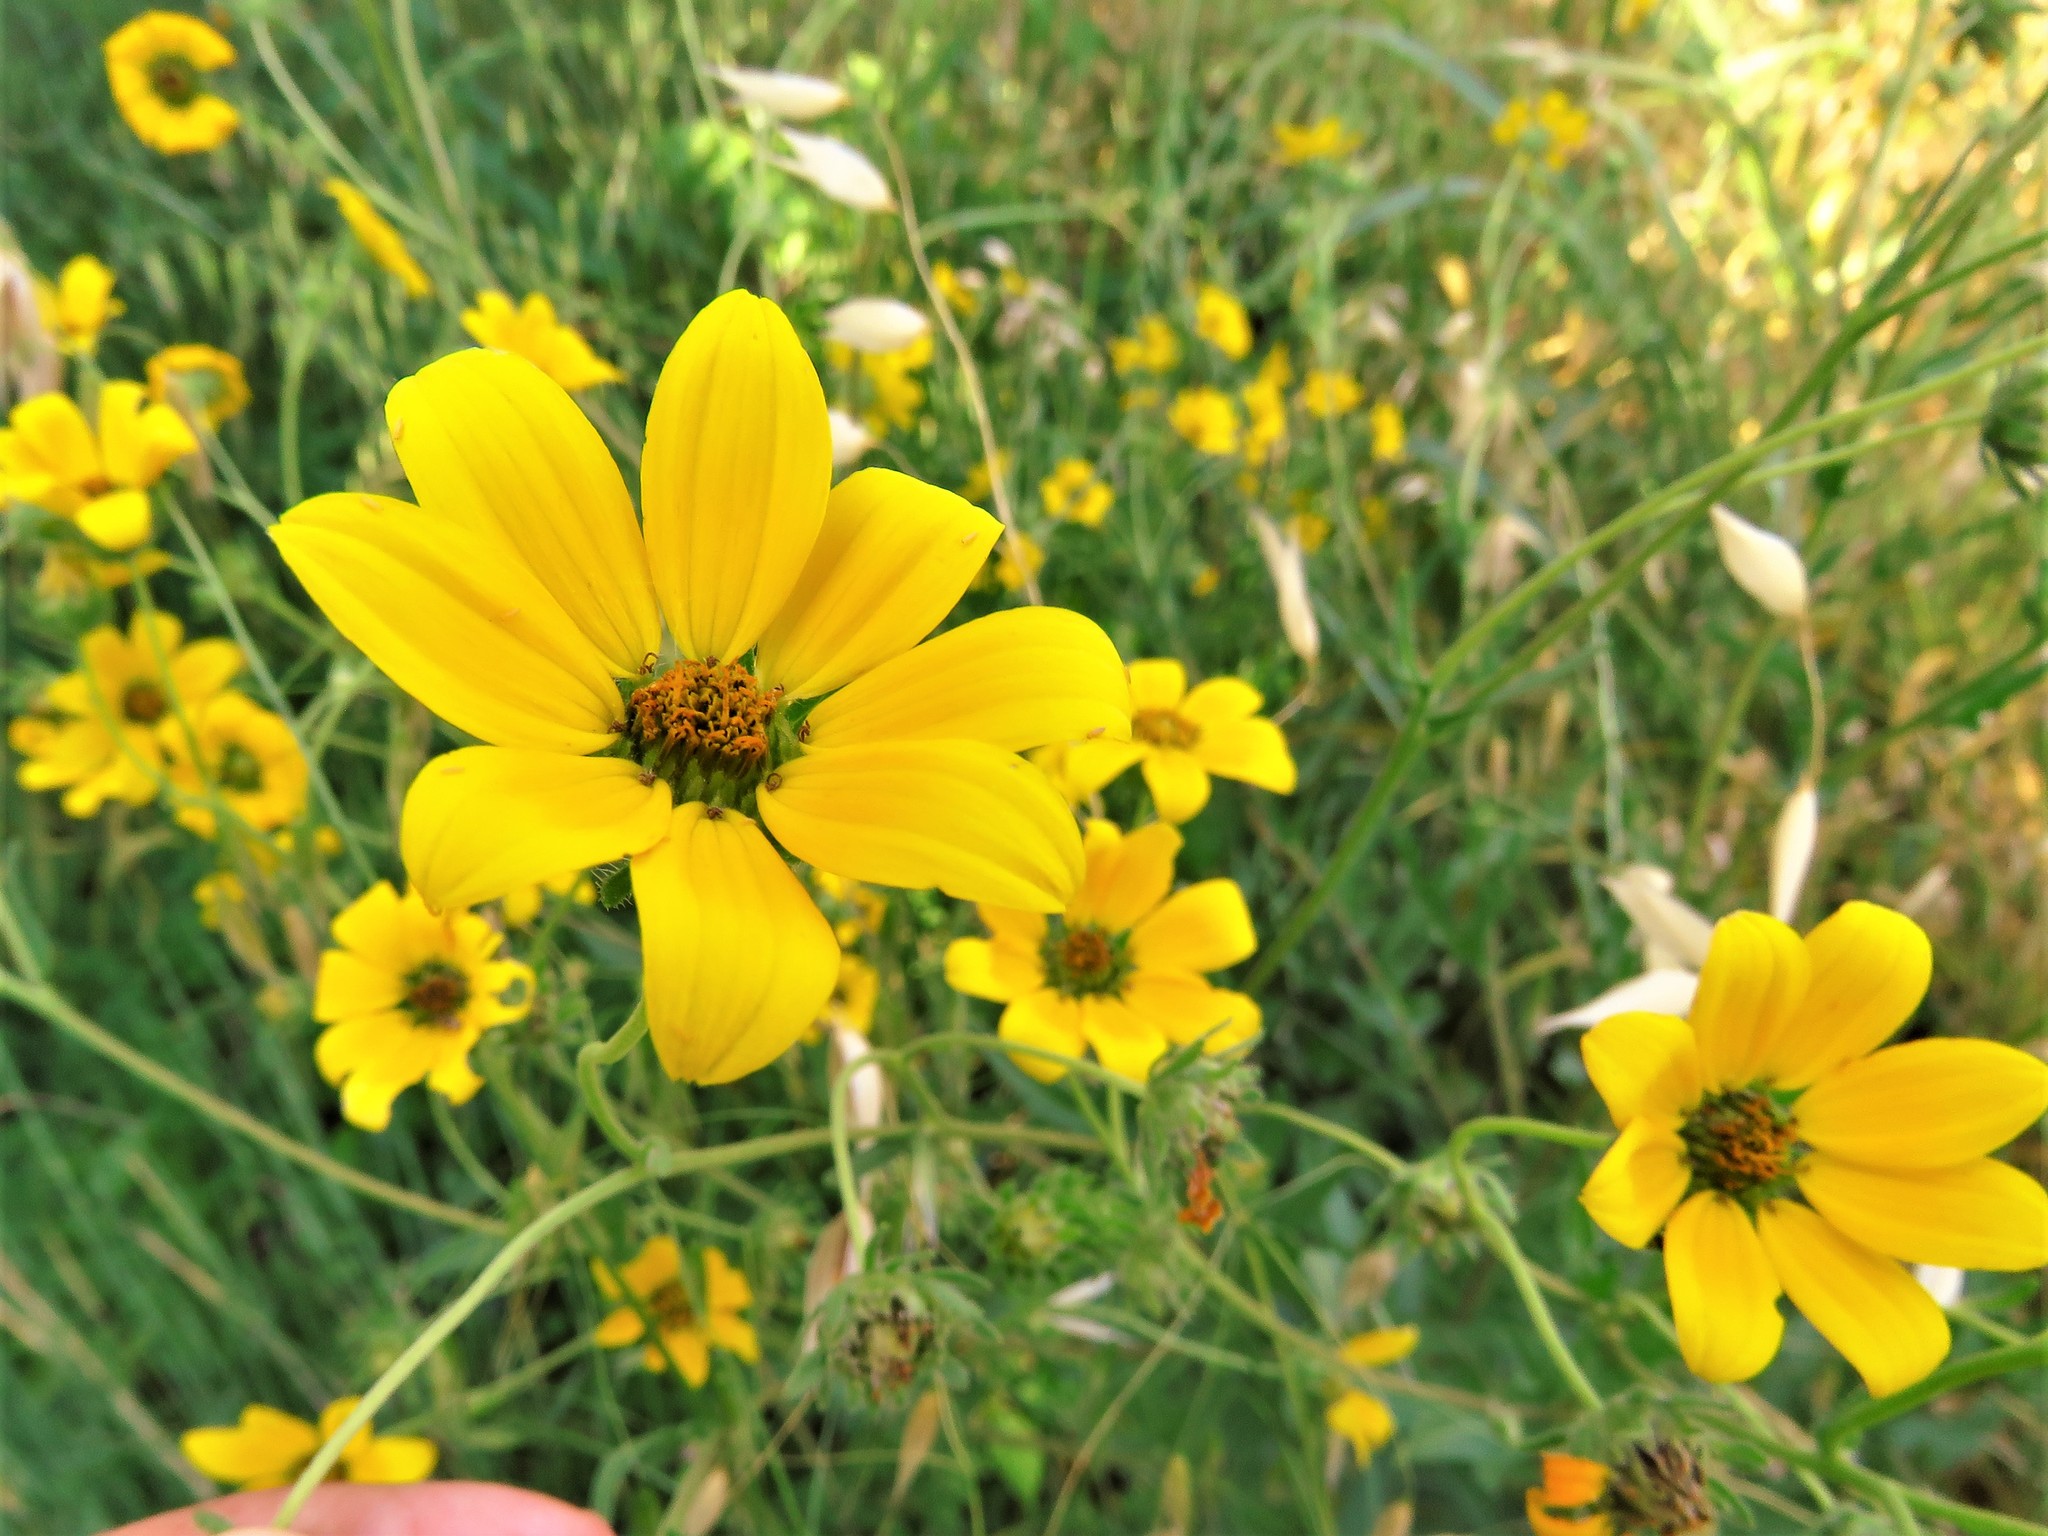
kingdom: Plantae
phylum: Tracheophyta
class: Magnoliopsida
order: Asterales
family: Asteraceae
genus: Engelmannia
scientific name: Engelmannia peristenia
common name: Engelmann's daisy
